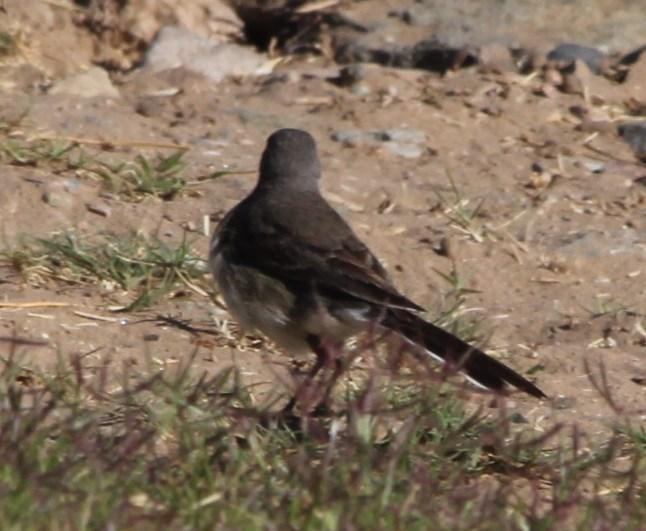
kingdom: Animalia
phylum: Chordata
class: Aves
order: Passeriformes
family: Motacillidae
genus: Motacilla
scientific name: Motacilla capensis
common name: Cape wagtail
